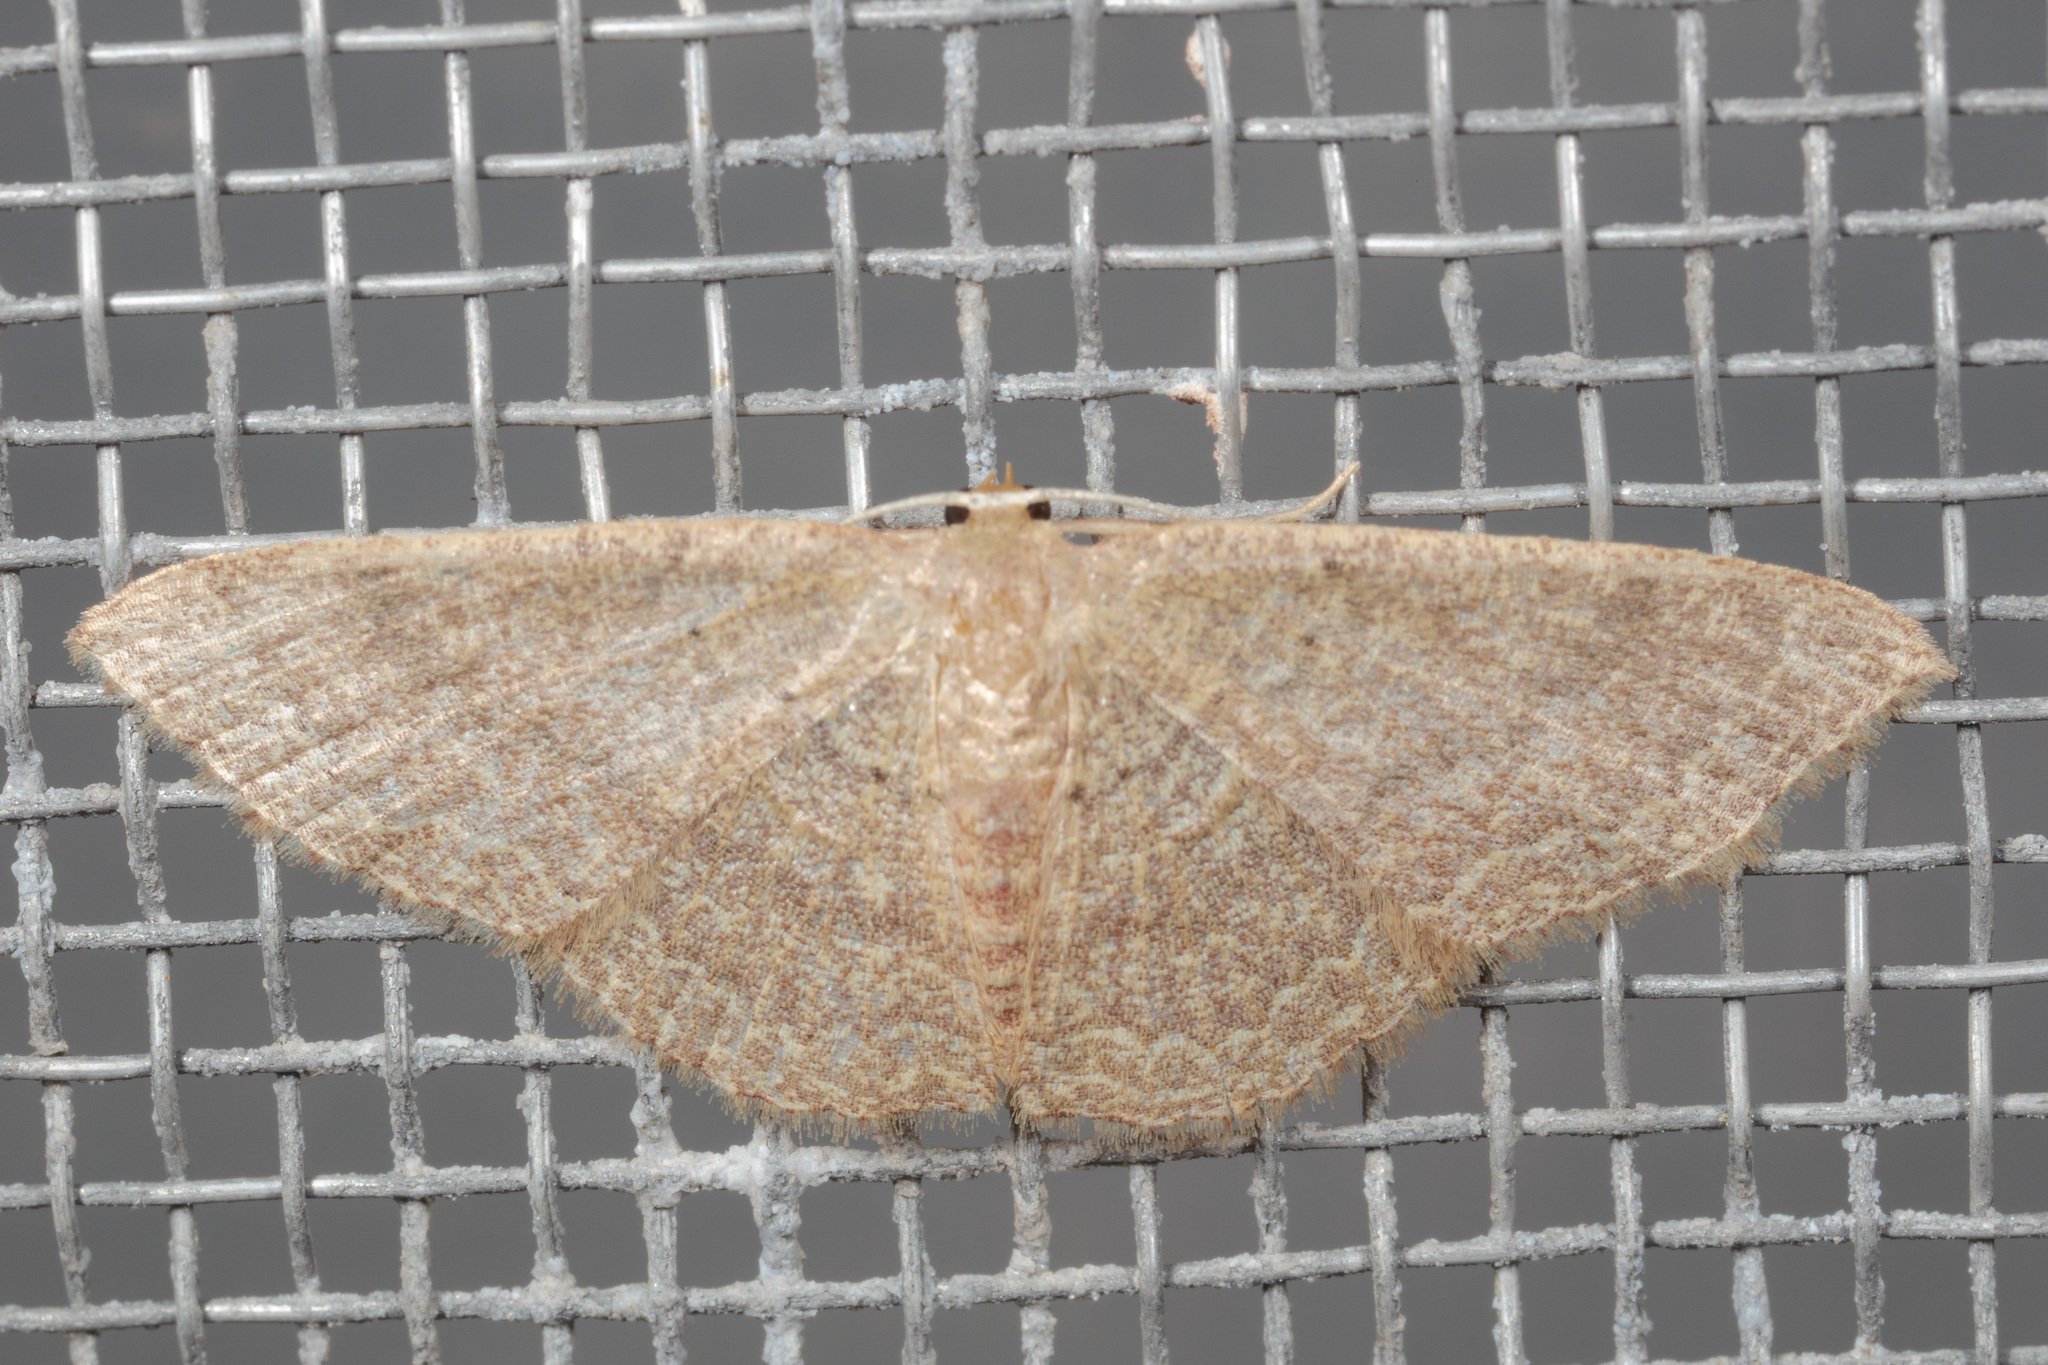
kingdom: Animalia
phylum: Arthropoda
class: Insecta
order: Lepidoptera
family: Geometridae
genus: Pleuroprucha
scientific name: Pleuroprucha insulsaria
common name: Common tan wave
